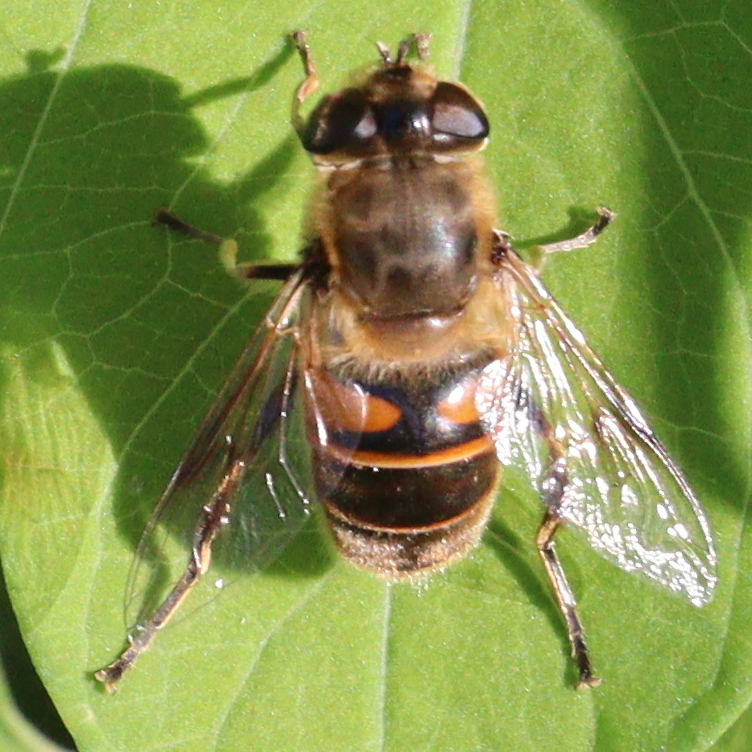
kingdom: Animalia
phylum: Arthropoda
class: Insecta
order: Diptera
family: Syrphidae
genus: Eristalis
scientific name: Eristalis tenax
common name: Drone fly
